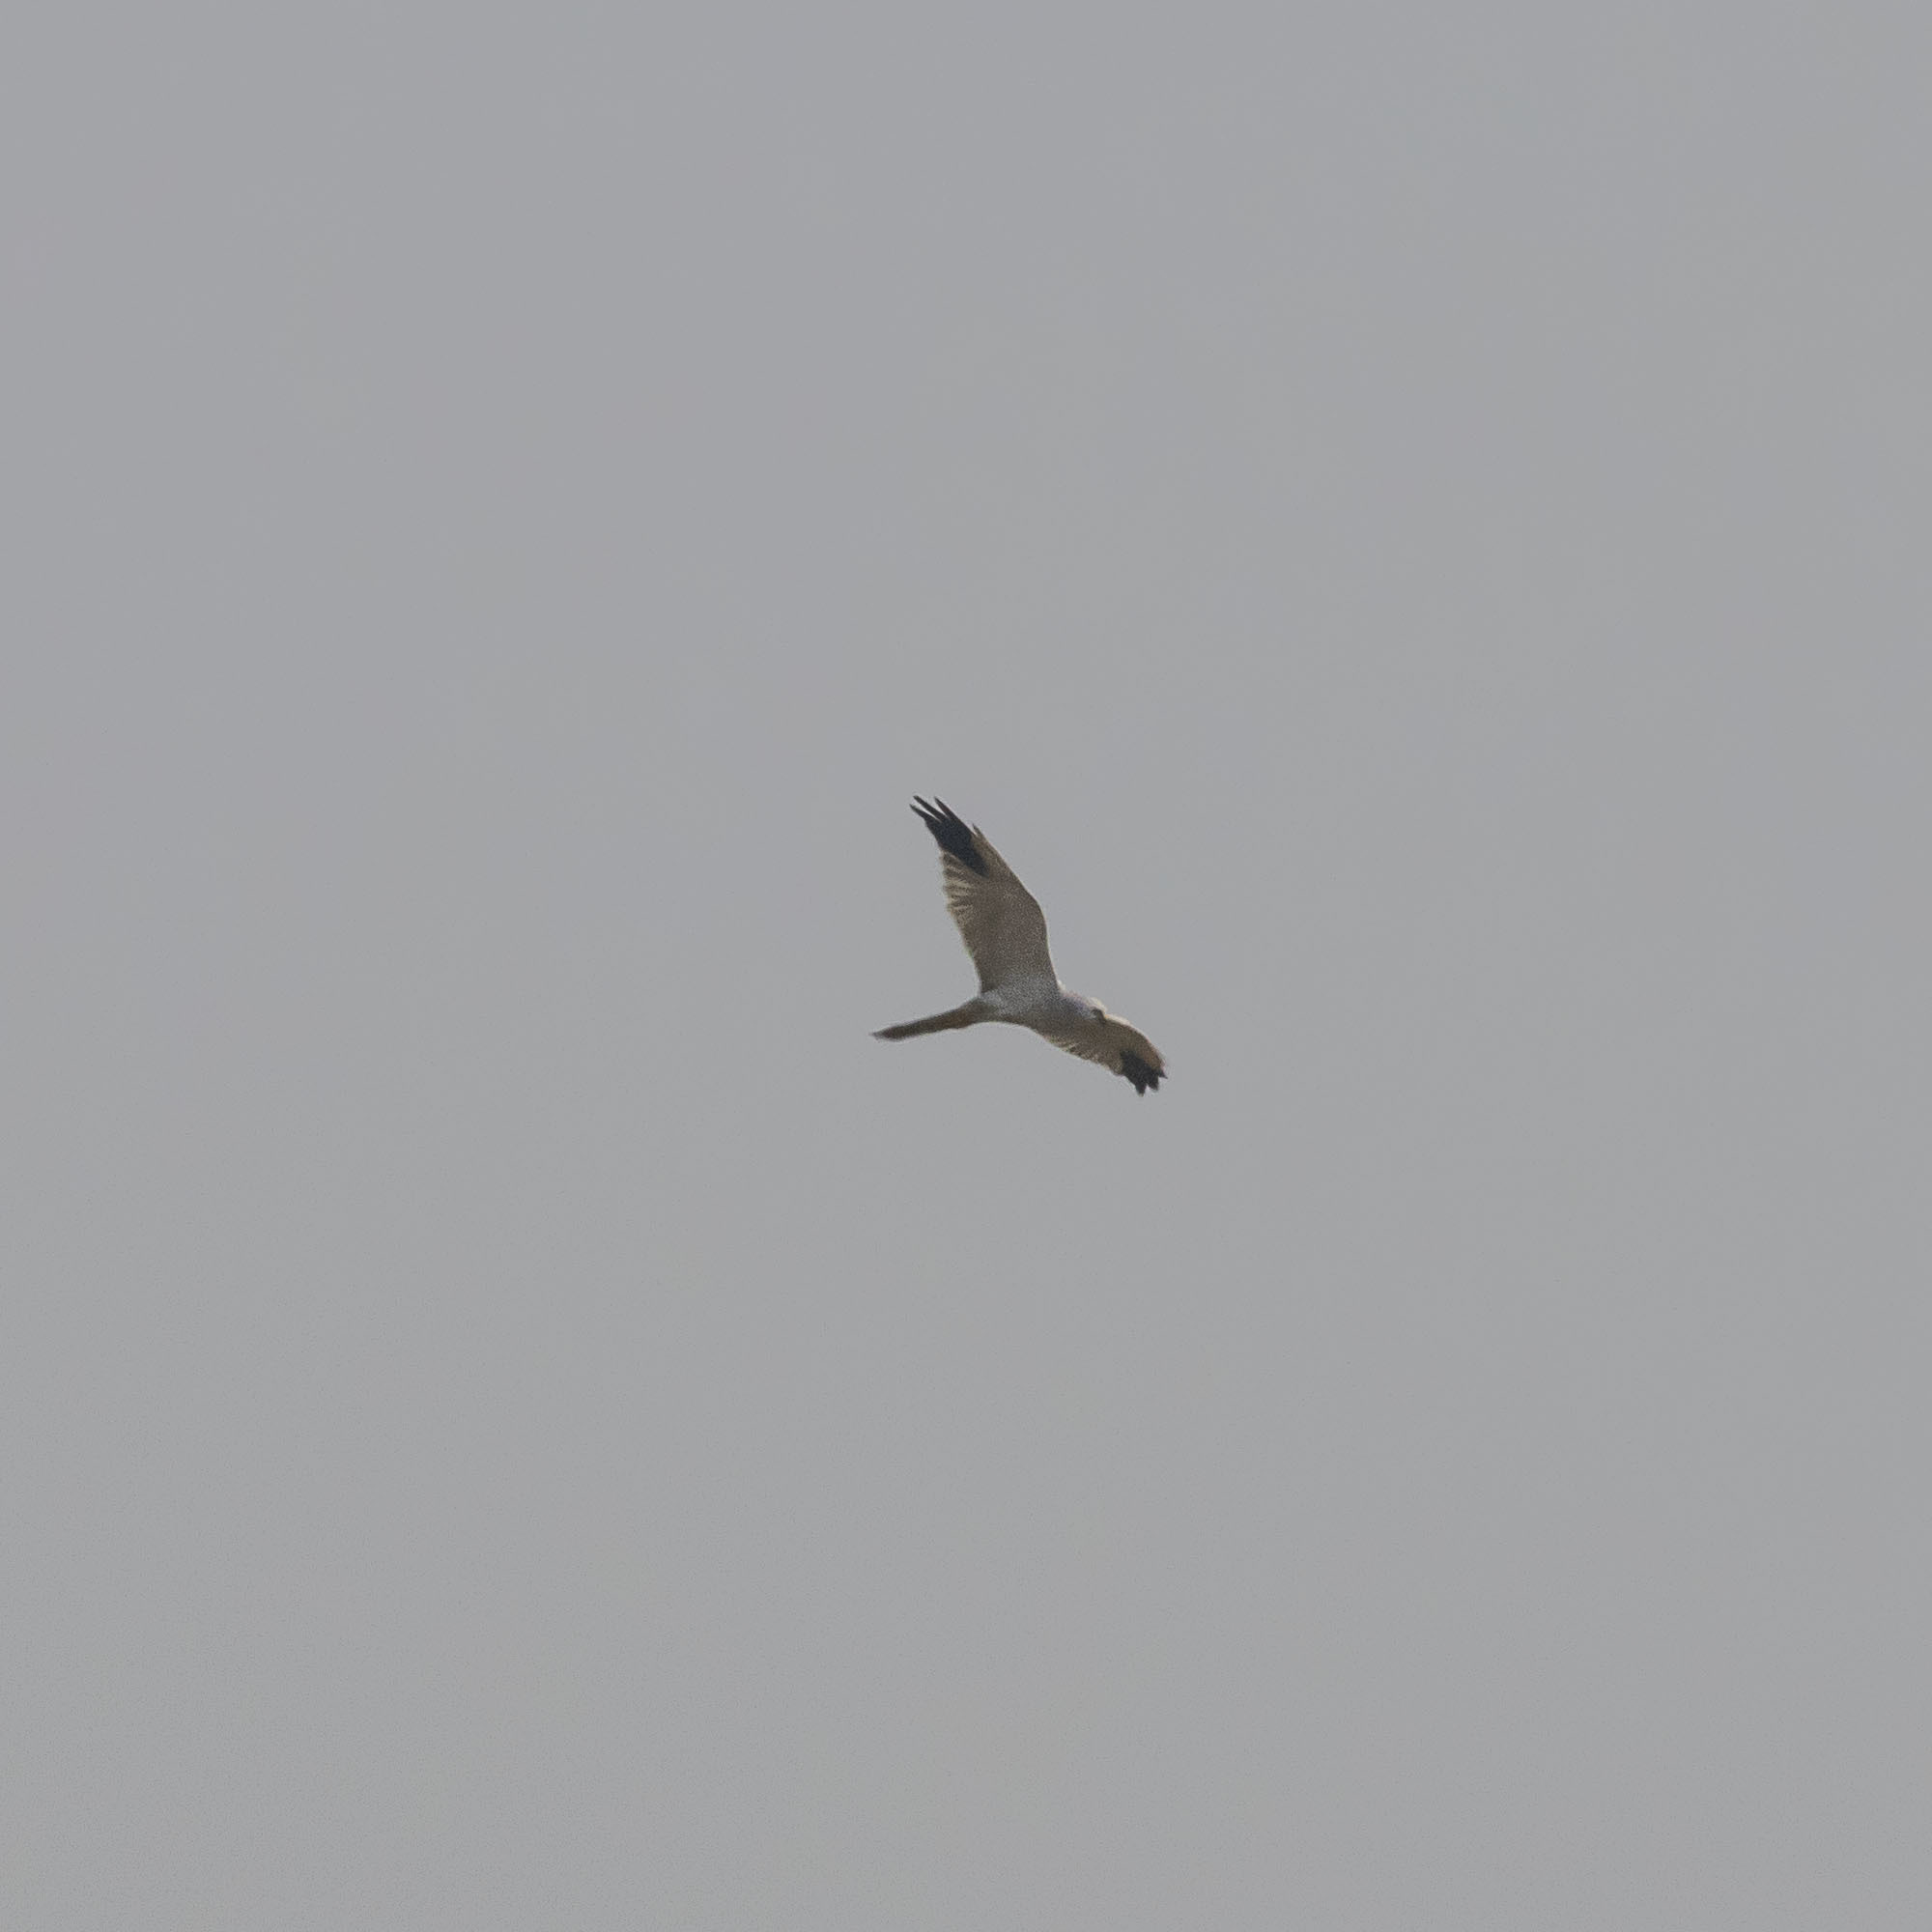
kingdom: Animalia
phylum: Chordata
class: Aves
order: Accipitriformes
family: Accipitridae
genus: Circus
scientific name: Circus macrourus
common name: Pallid harrier
